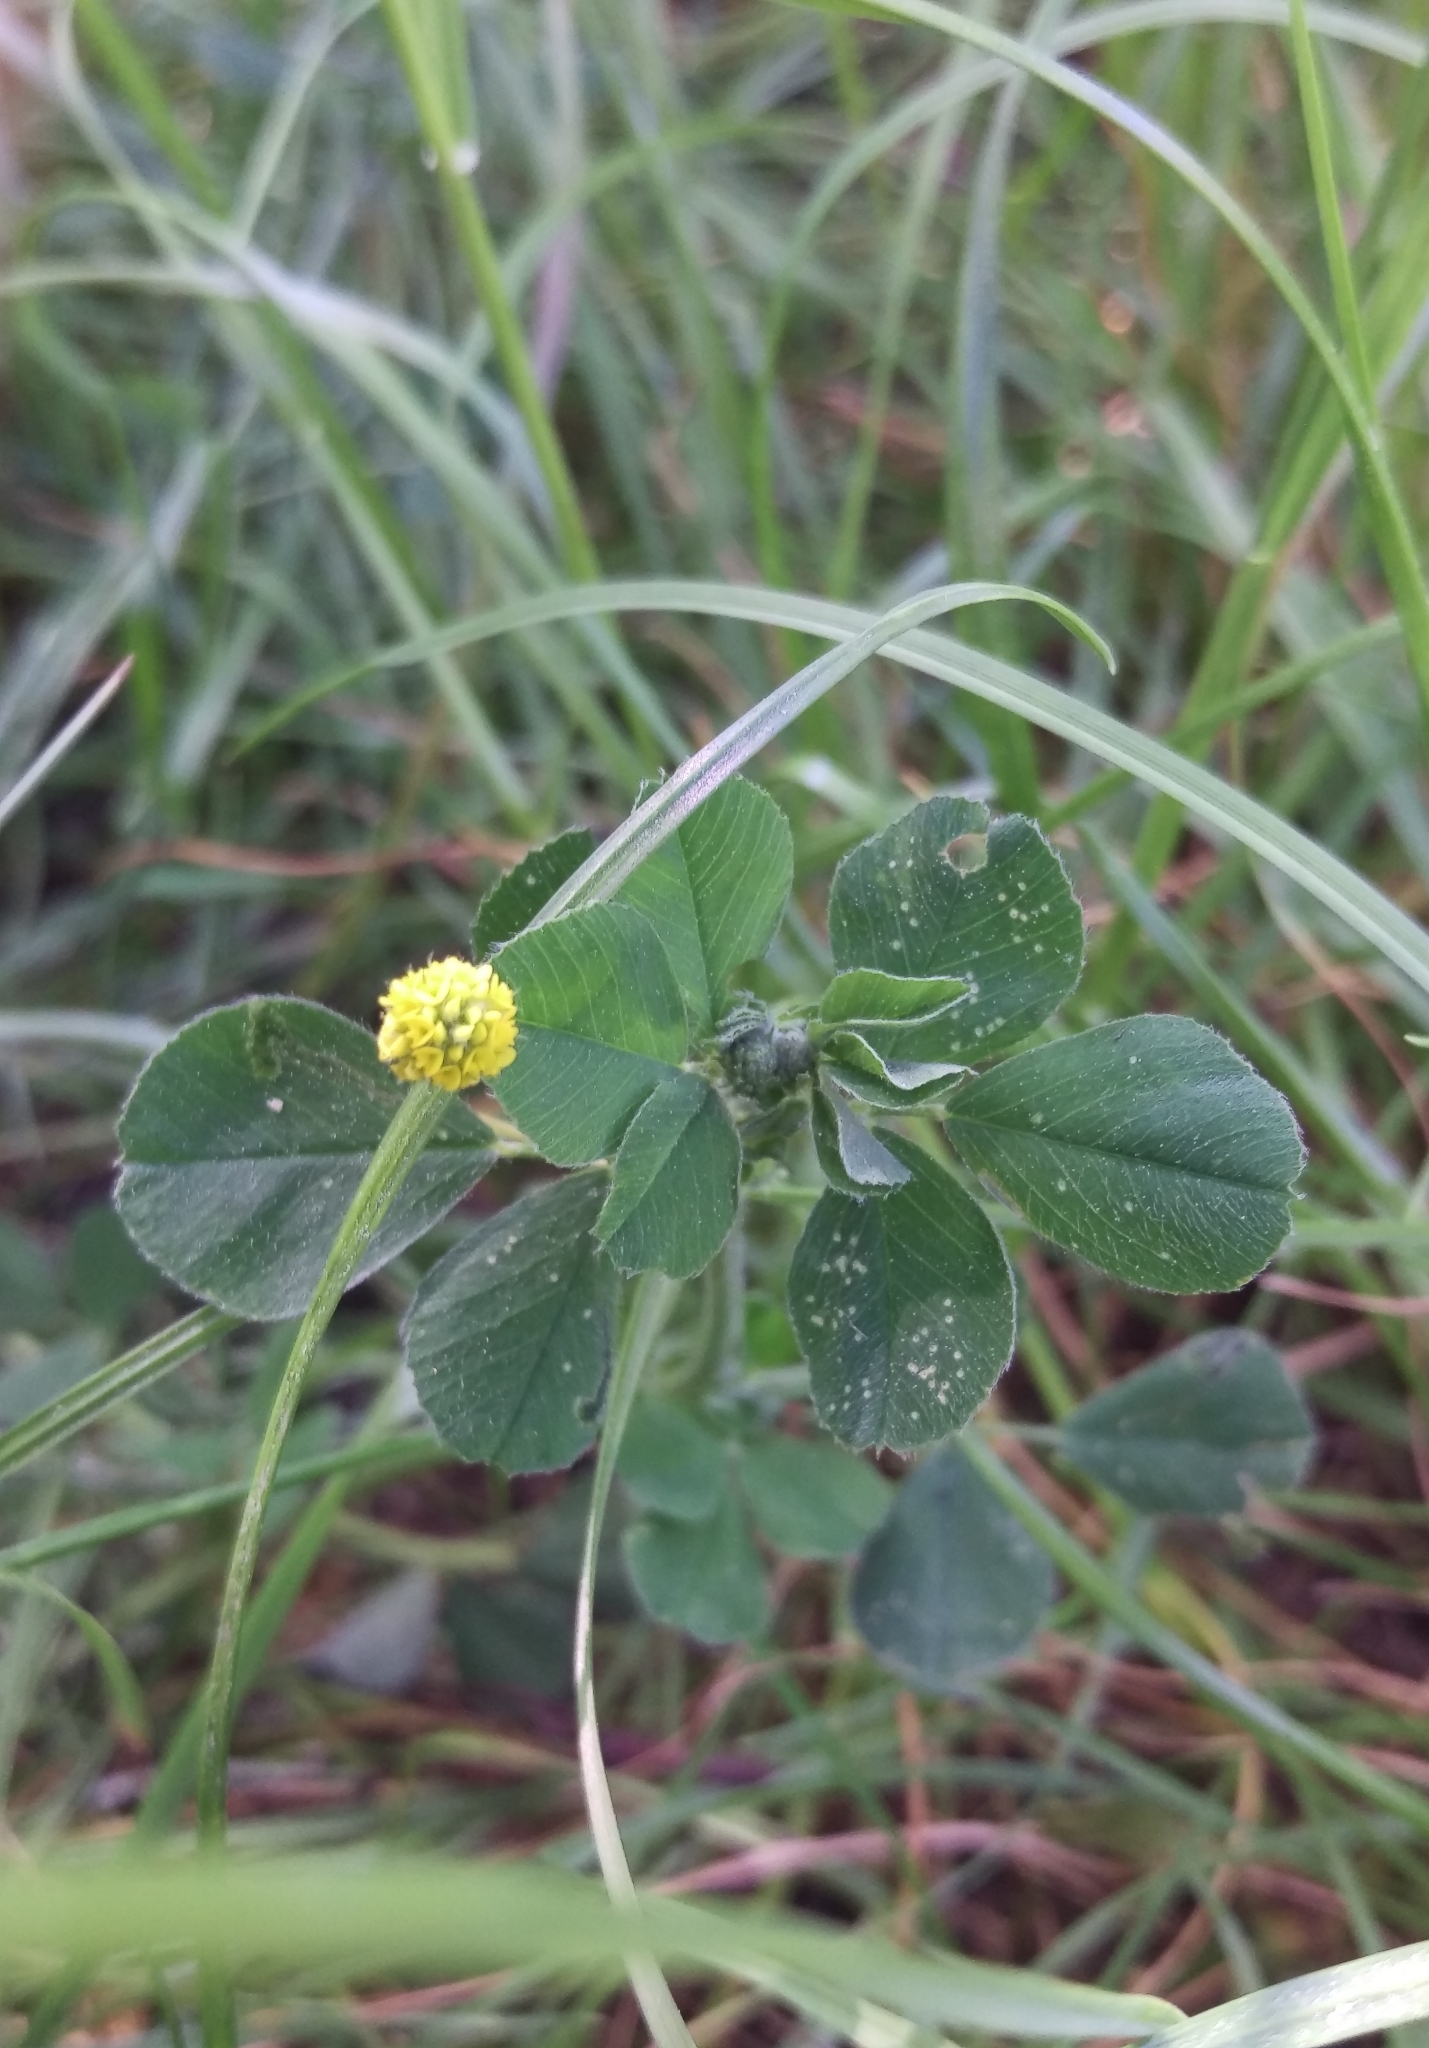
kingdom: Plantae
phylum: Tracheophyta
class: Magnoliopsida
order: Fabales
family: Fabaceae
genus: Medicago
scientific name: Medicago lupulina
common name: Black medick
